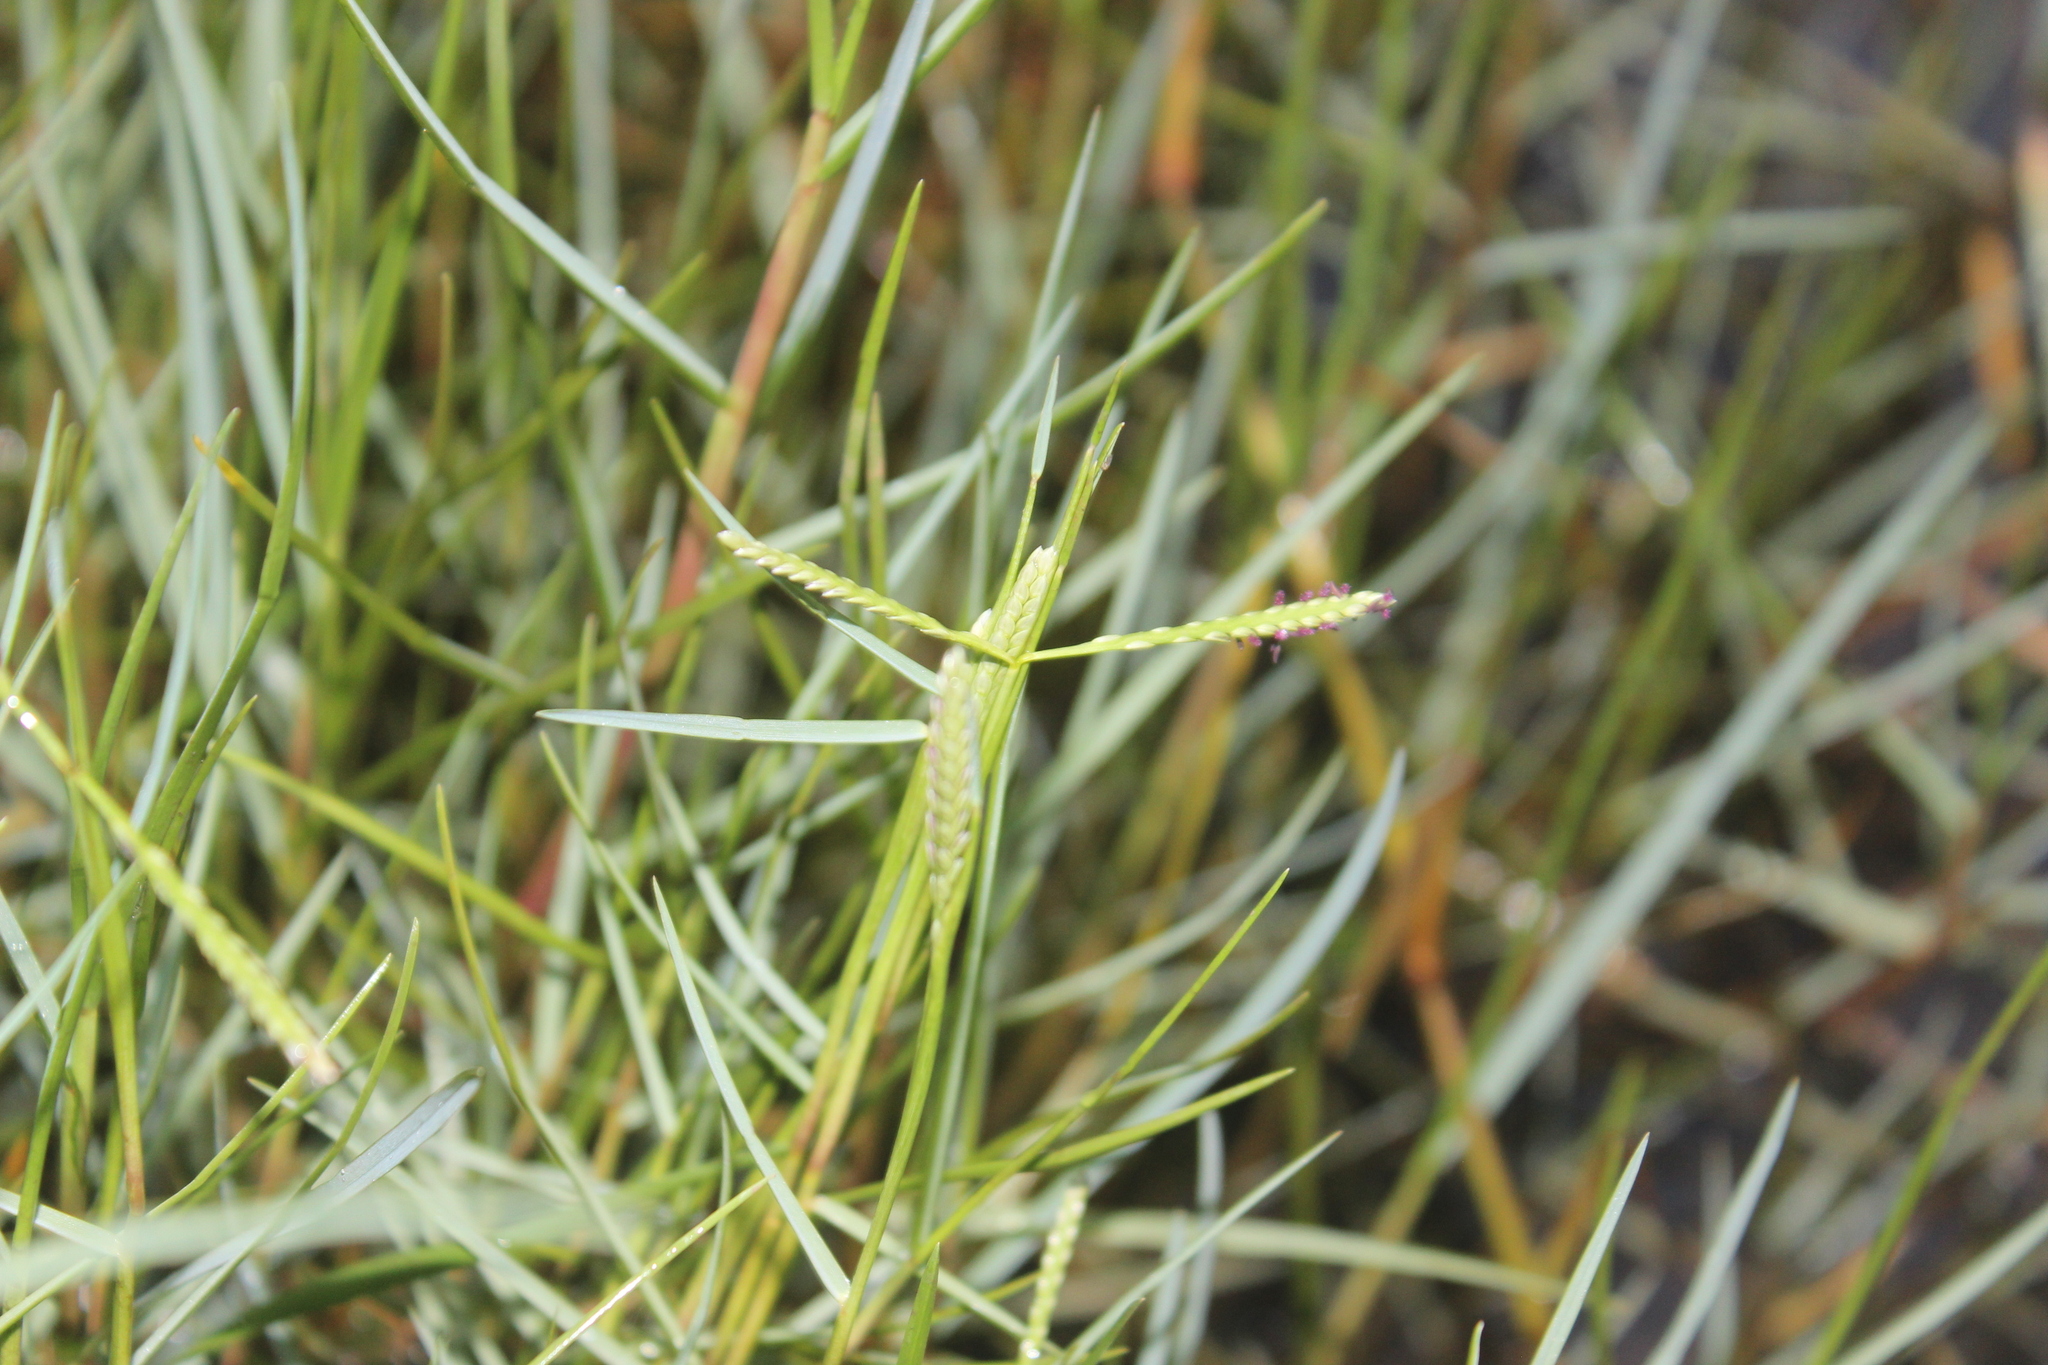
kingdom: Plantae
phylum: Tracheophyta
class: Liliopsida
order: Poales
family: Poaceae
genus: Paspalum
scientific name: Paspalum vaginatum
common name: Seashore paspalum
